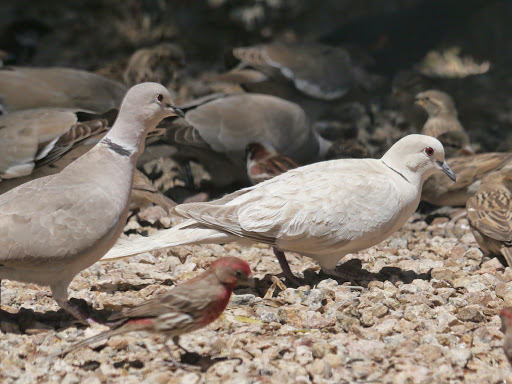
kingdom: Animalia
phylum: Chordata
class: Aves
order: Columbiformes
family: Columbidae
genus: Streptopelia
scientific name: Streptopelia decaocto
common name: Eurasian collared dove
